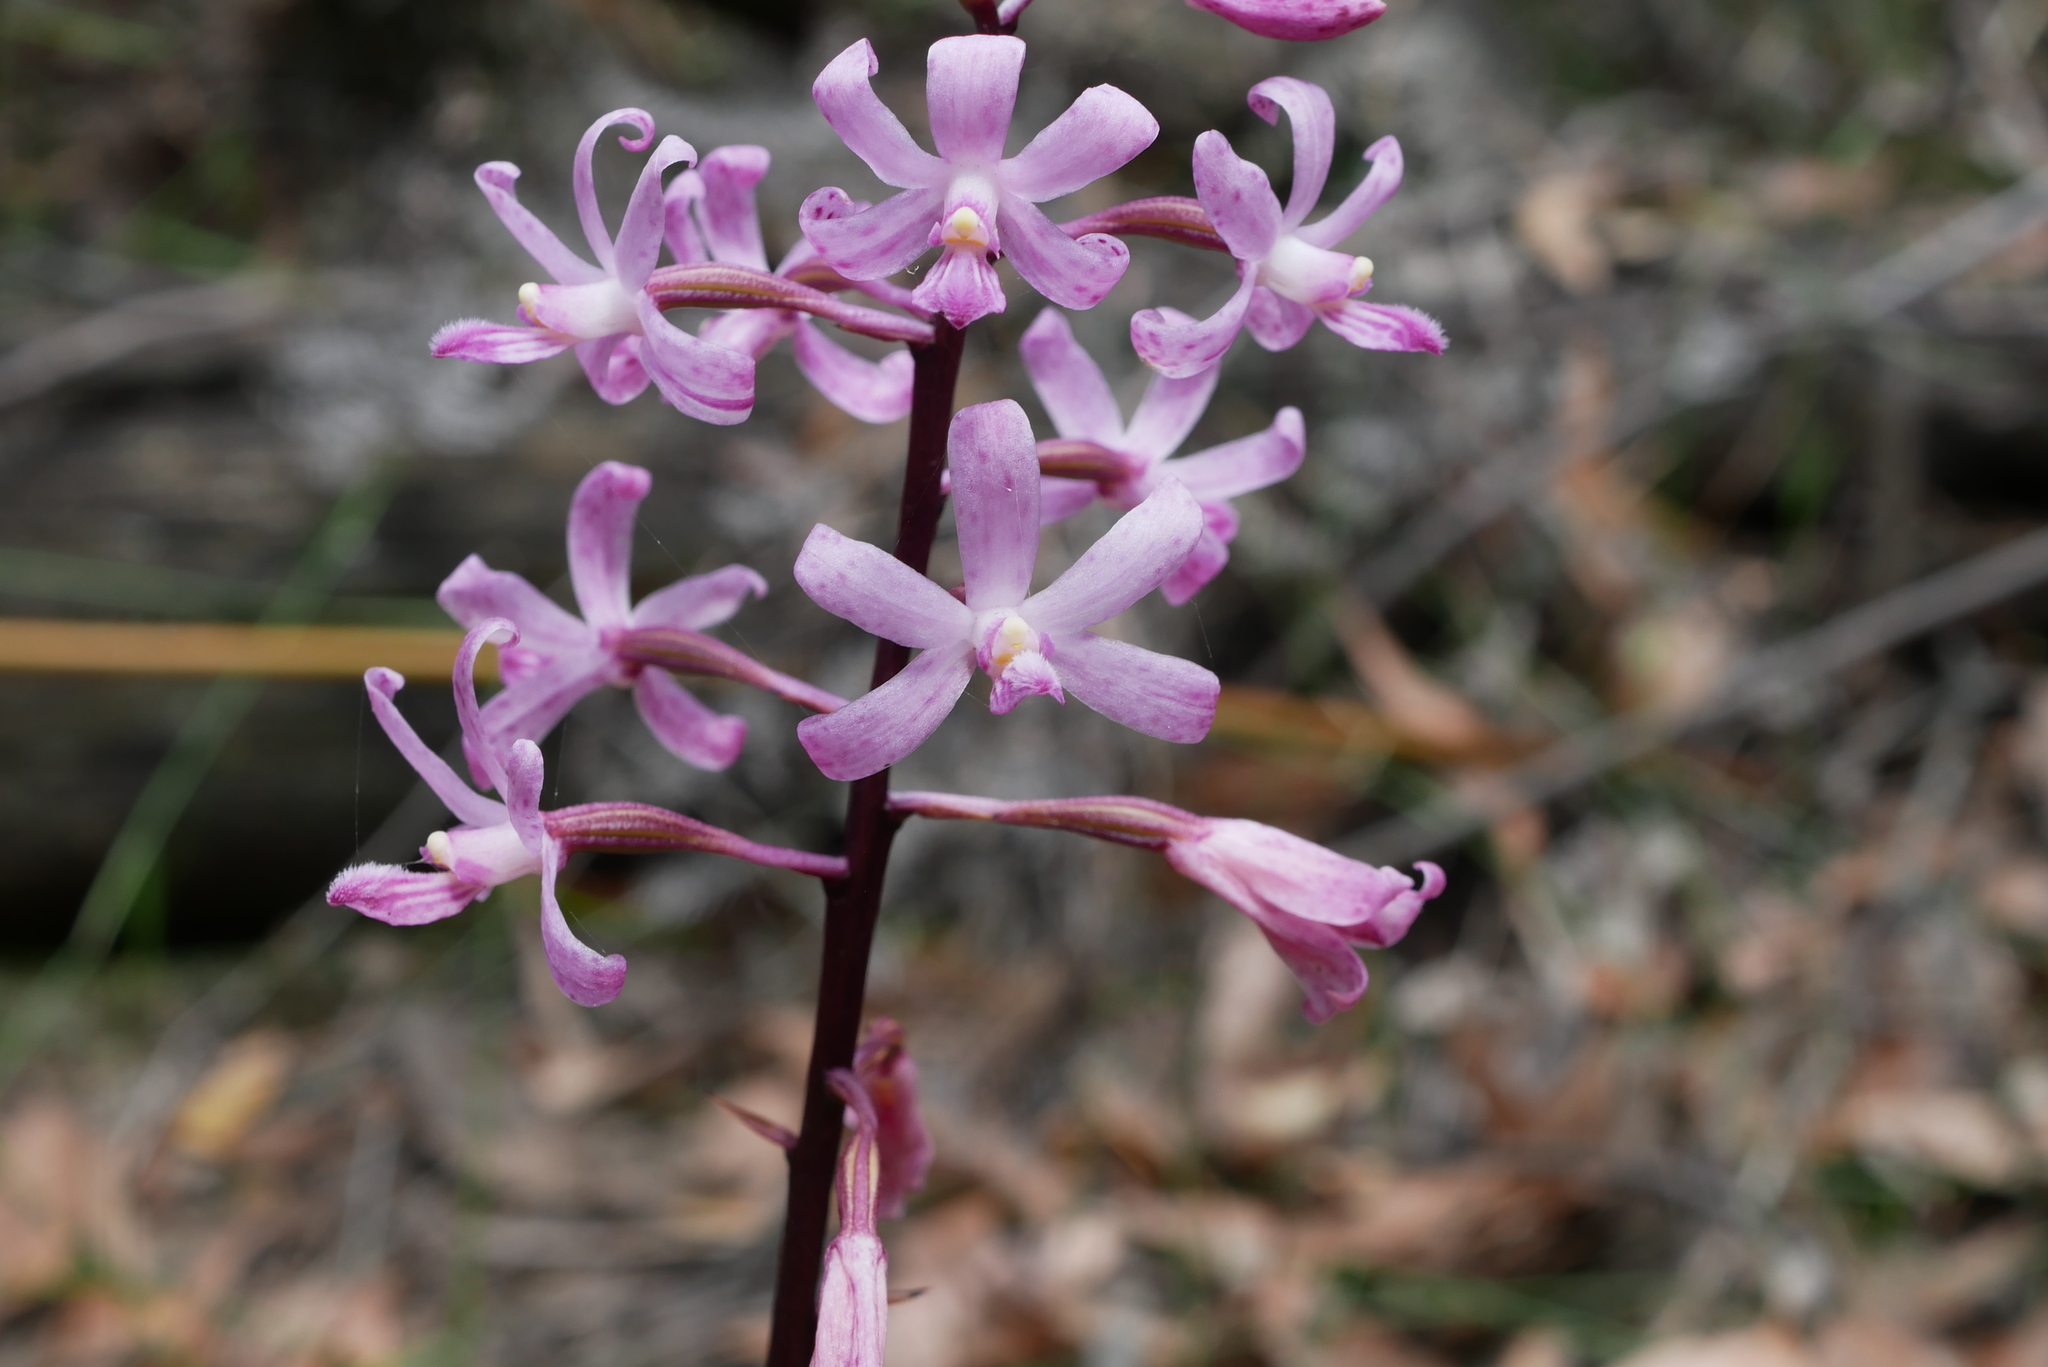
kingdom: Plantae
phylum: Tracheophyta
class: Liliopsida
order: Asparagales
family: Orchidaceae
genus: Dipodium
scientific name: Dipodium roseum
